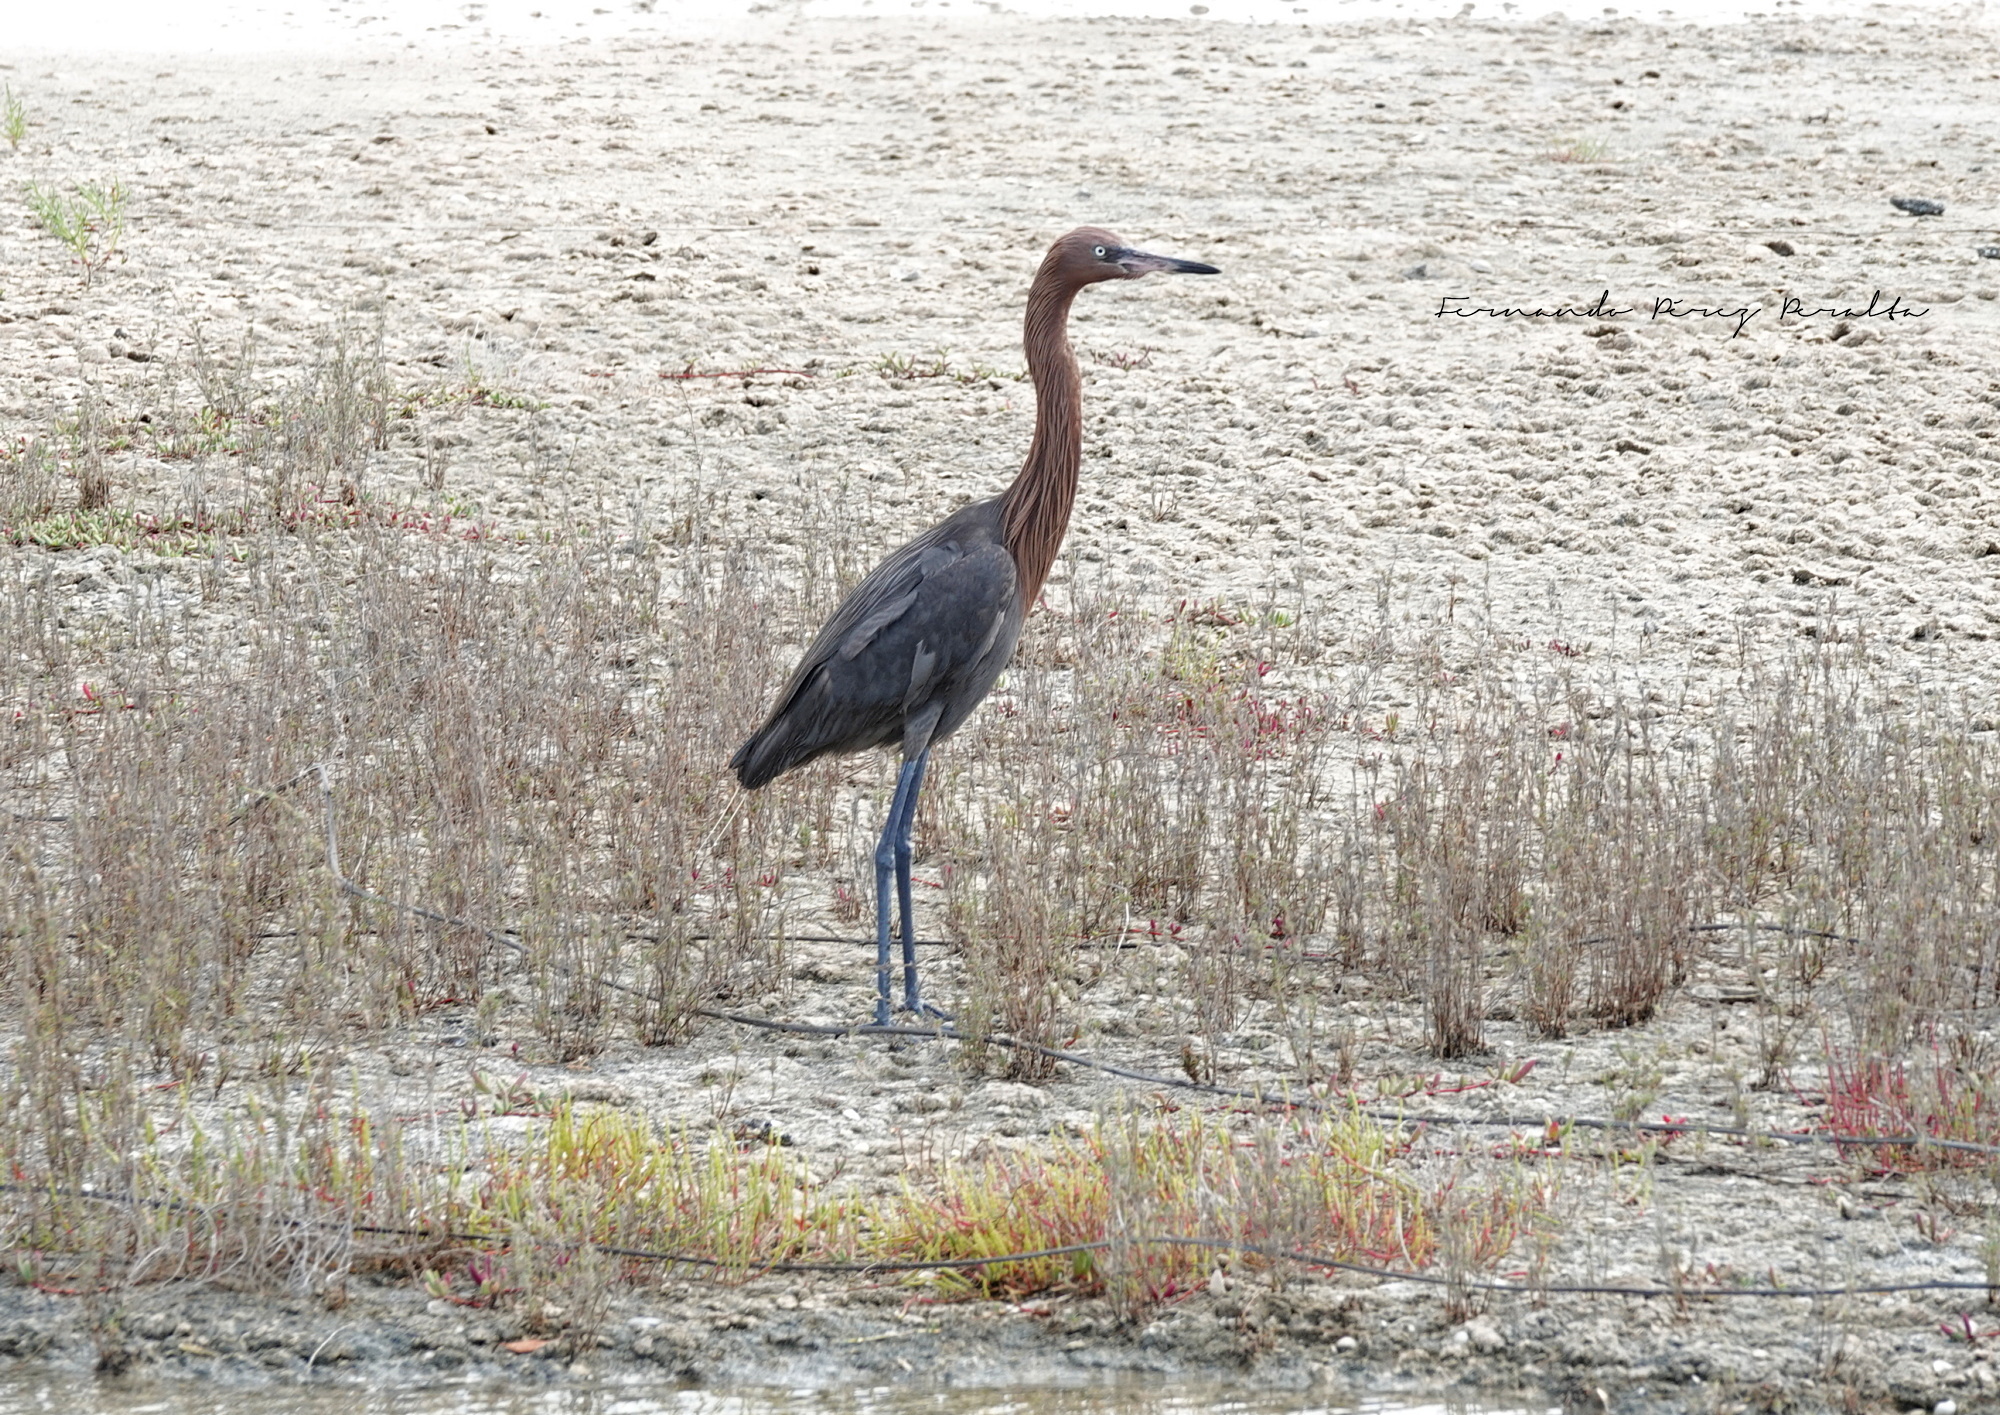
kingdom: Animalia
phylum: Chordata
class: Aves
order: Pelecaniformes
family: Ardeidae
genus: Egretta
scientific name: Egretta rufescens
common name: Reddish egret
